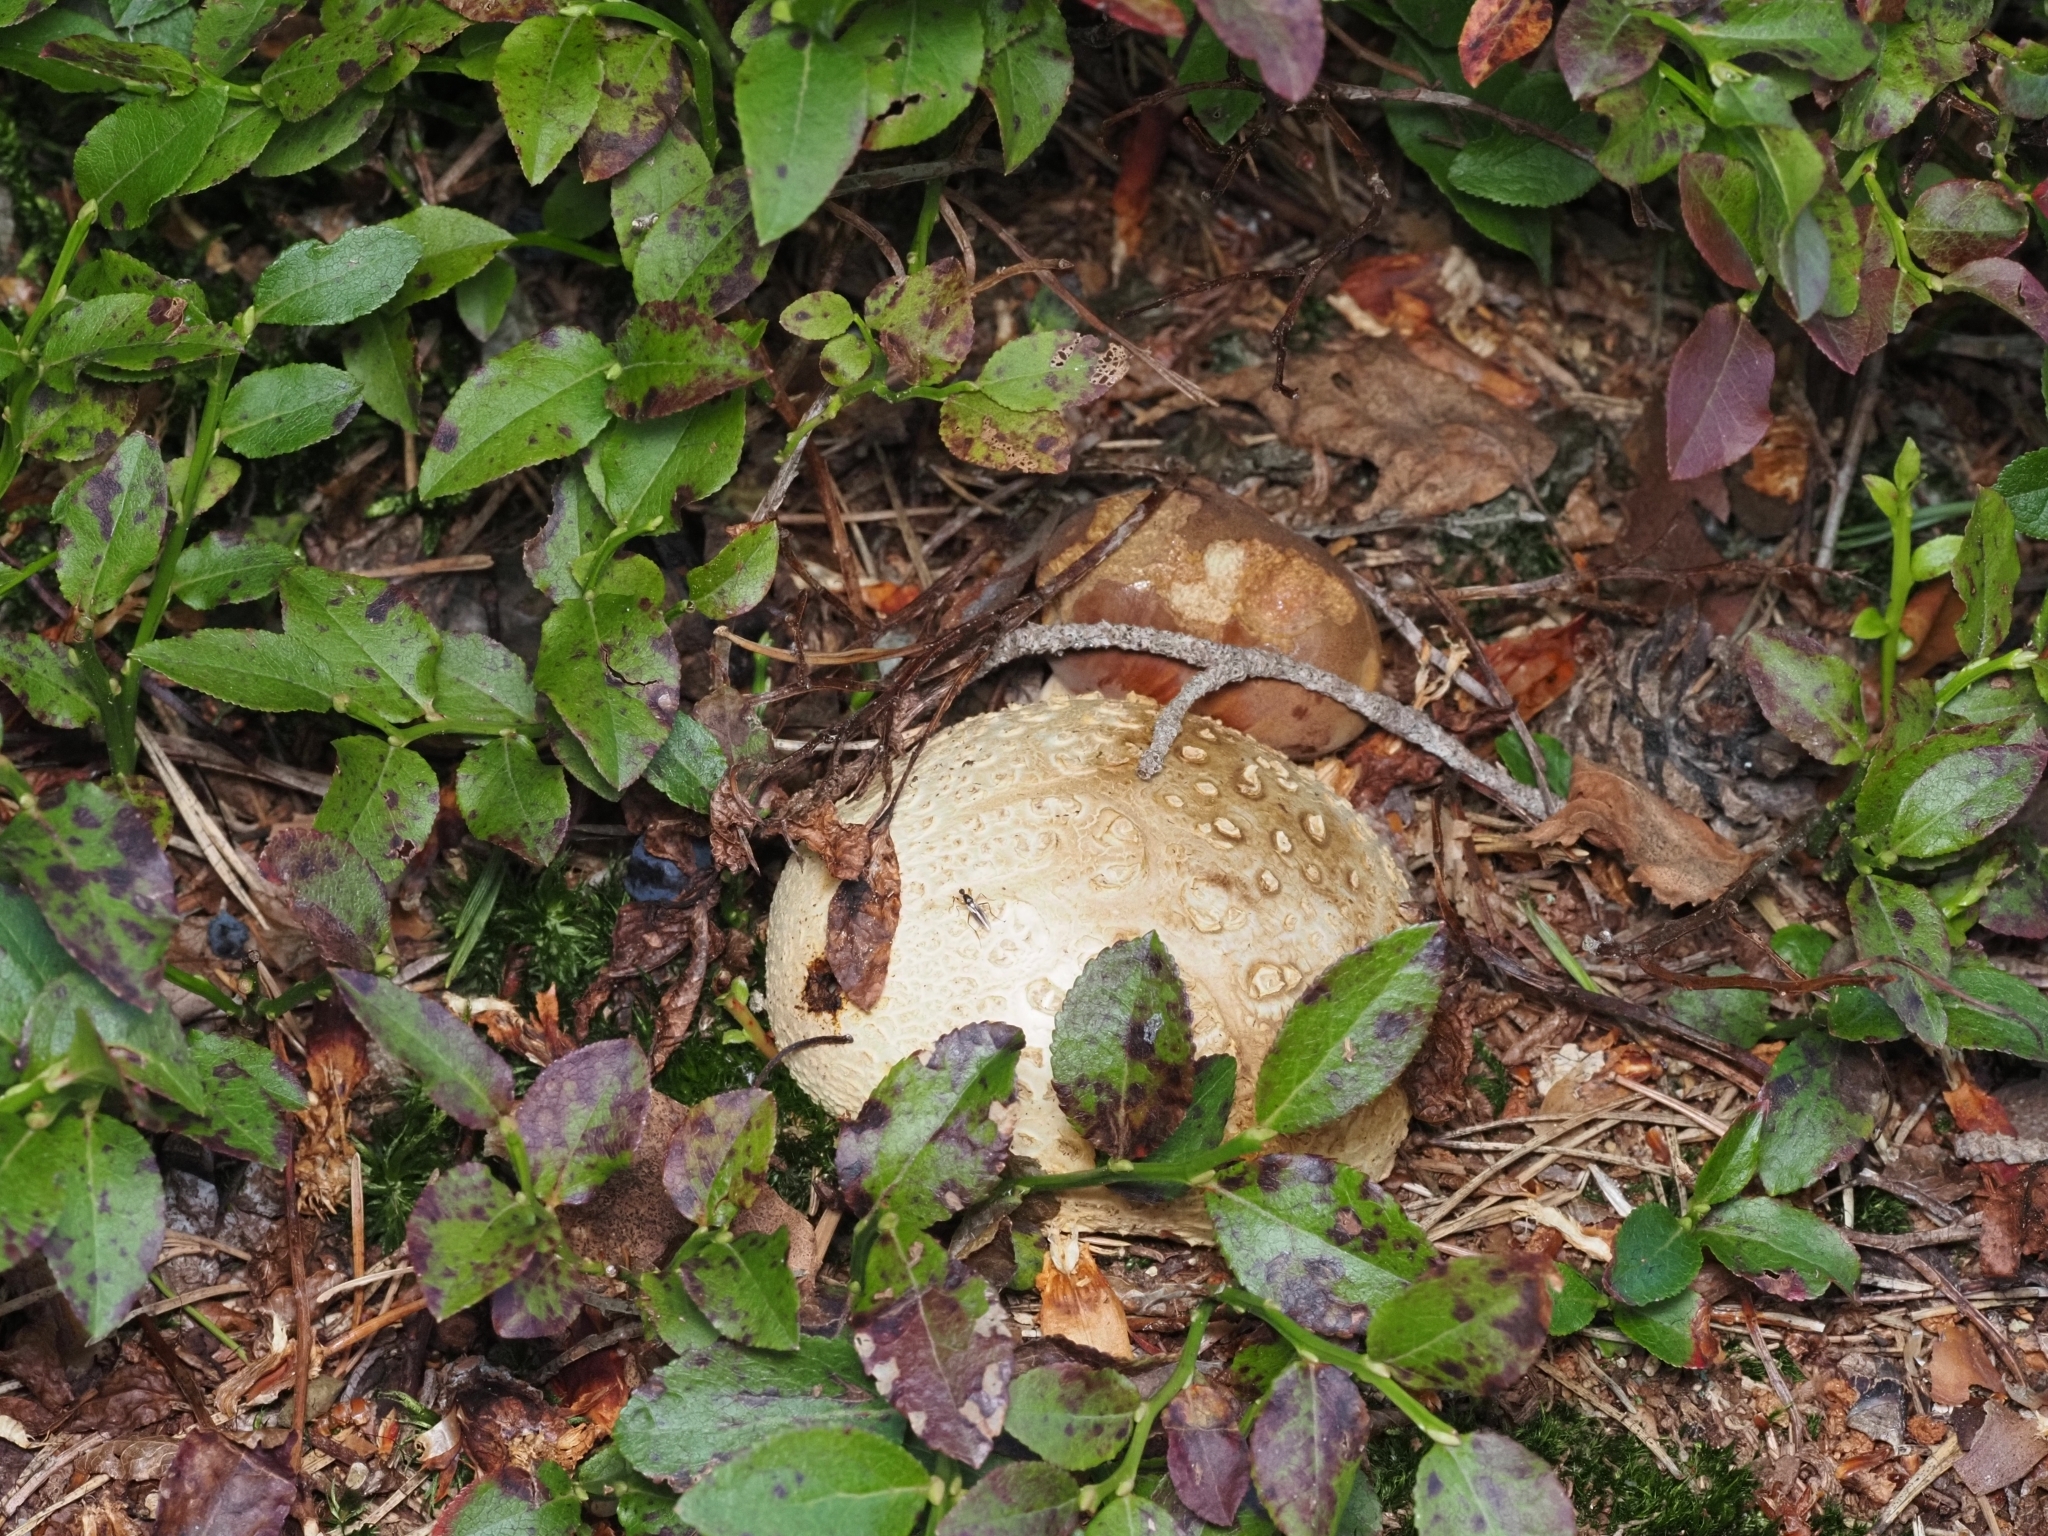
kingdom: Fungi
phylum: Basidiomycota
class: Agaricomycetes
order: Boletales
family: Sclerodermataceae
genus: Scleroderma
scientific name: Scleroderma citrinum
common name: Common earthball
